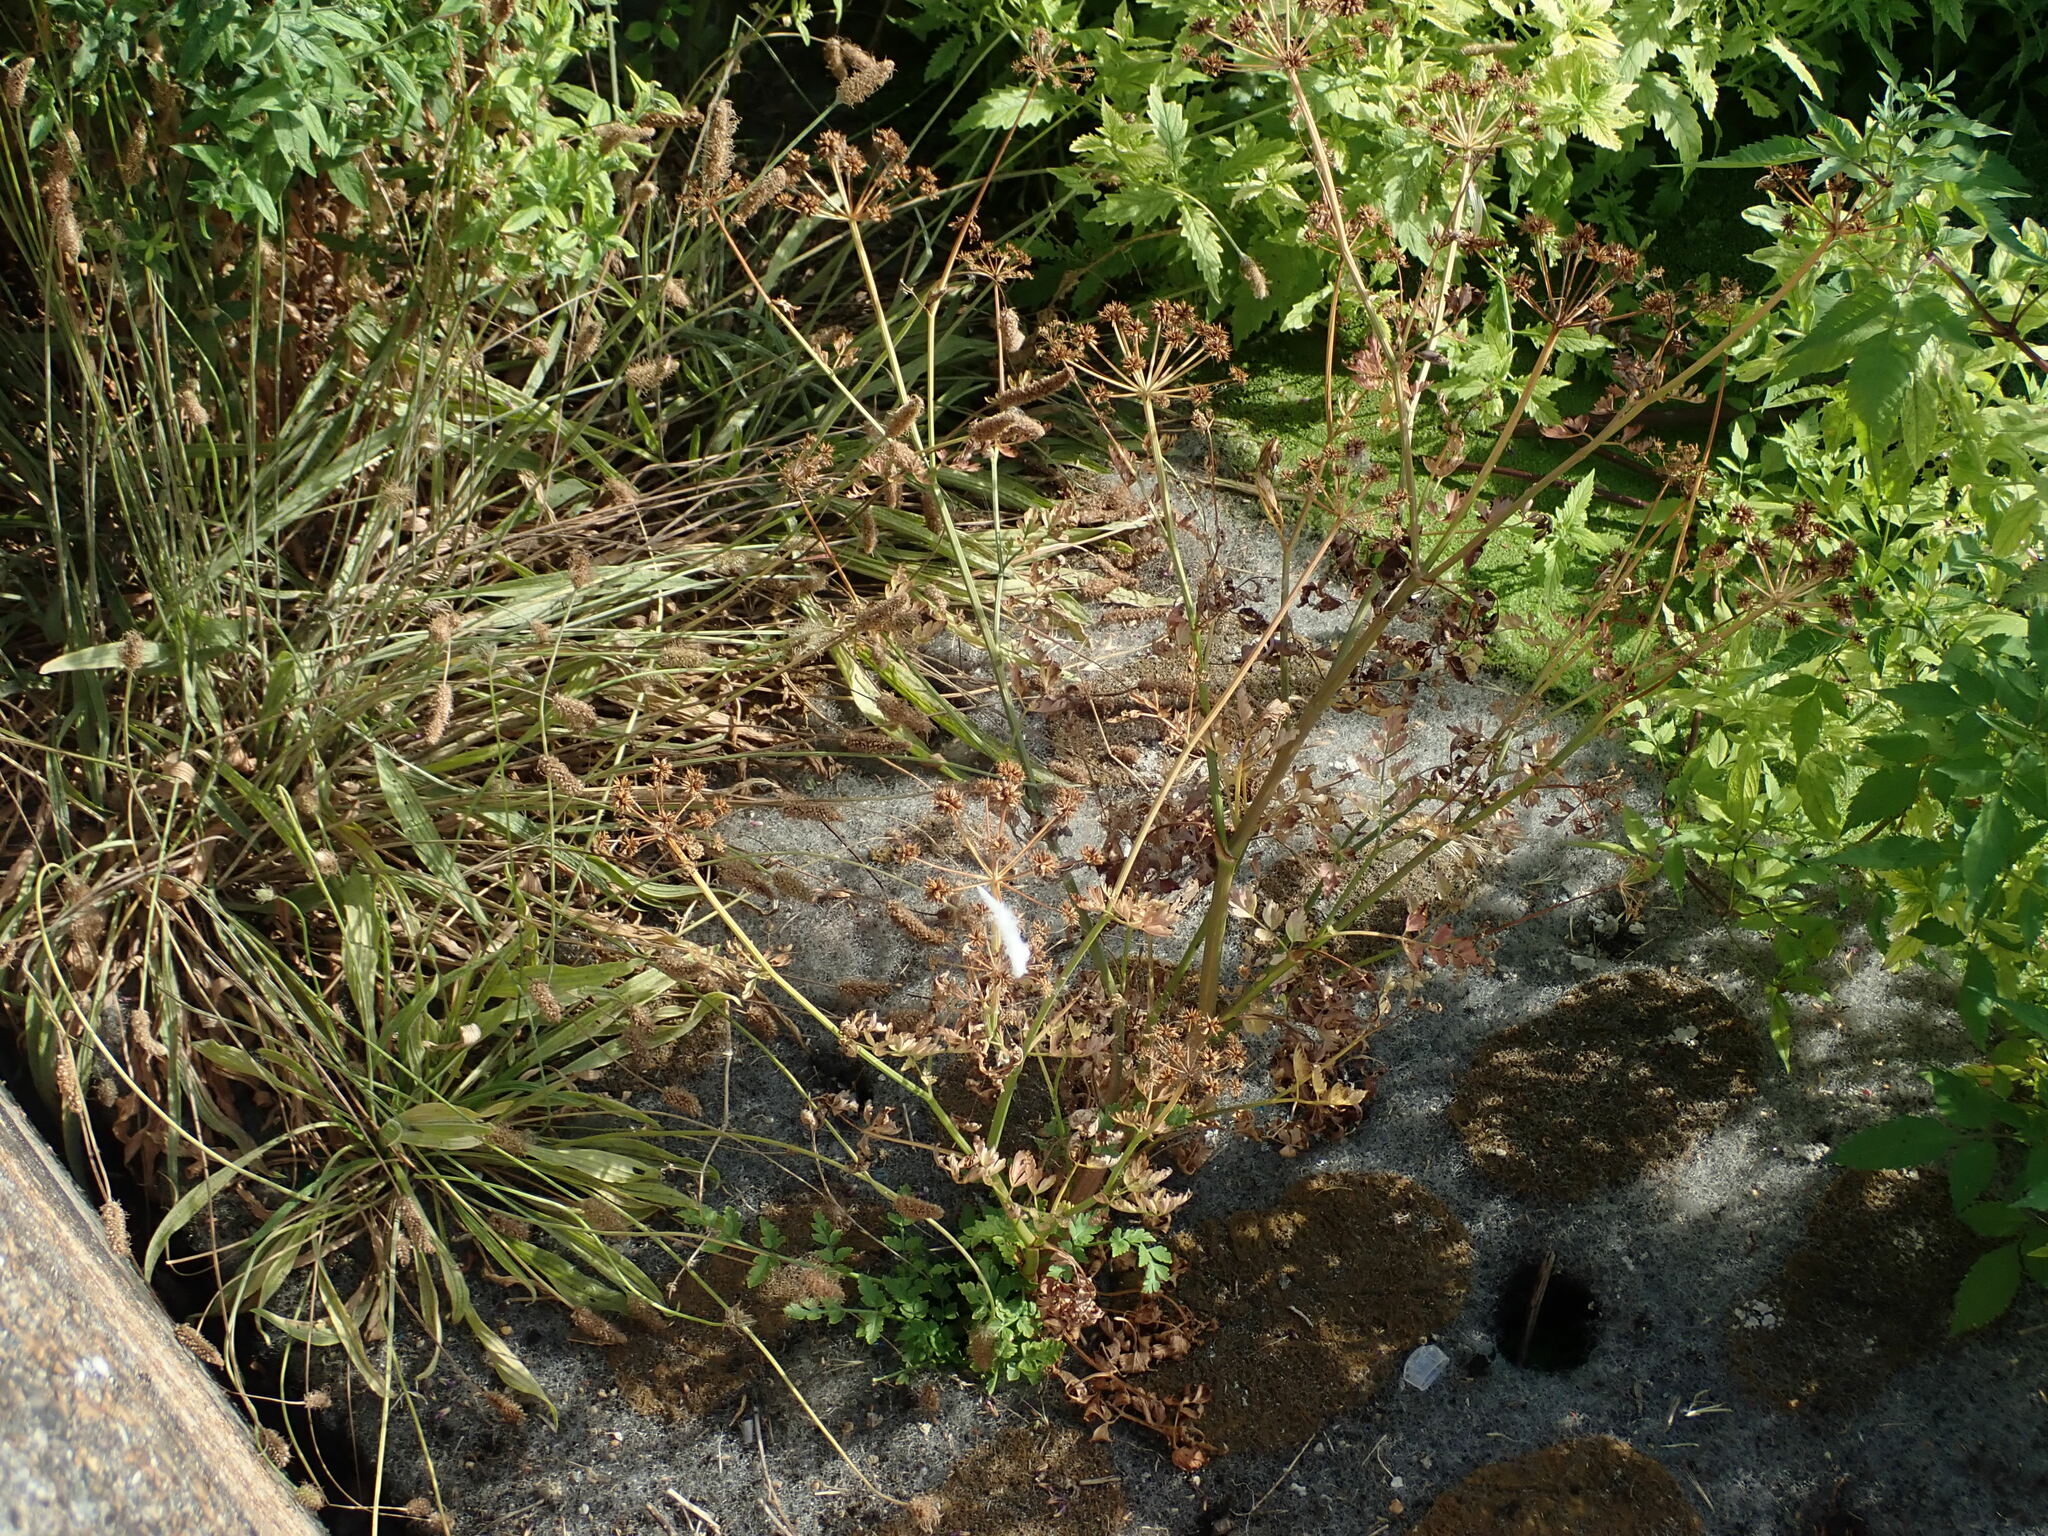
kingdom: Plantae
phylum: Tracheophyta
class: Magnoliopsida
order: Apiales
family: Apiaceae
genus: Oenanthe
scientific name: Oenanthe crocata
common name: Hemlock water-dropwort
